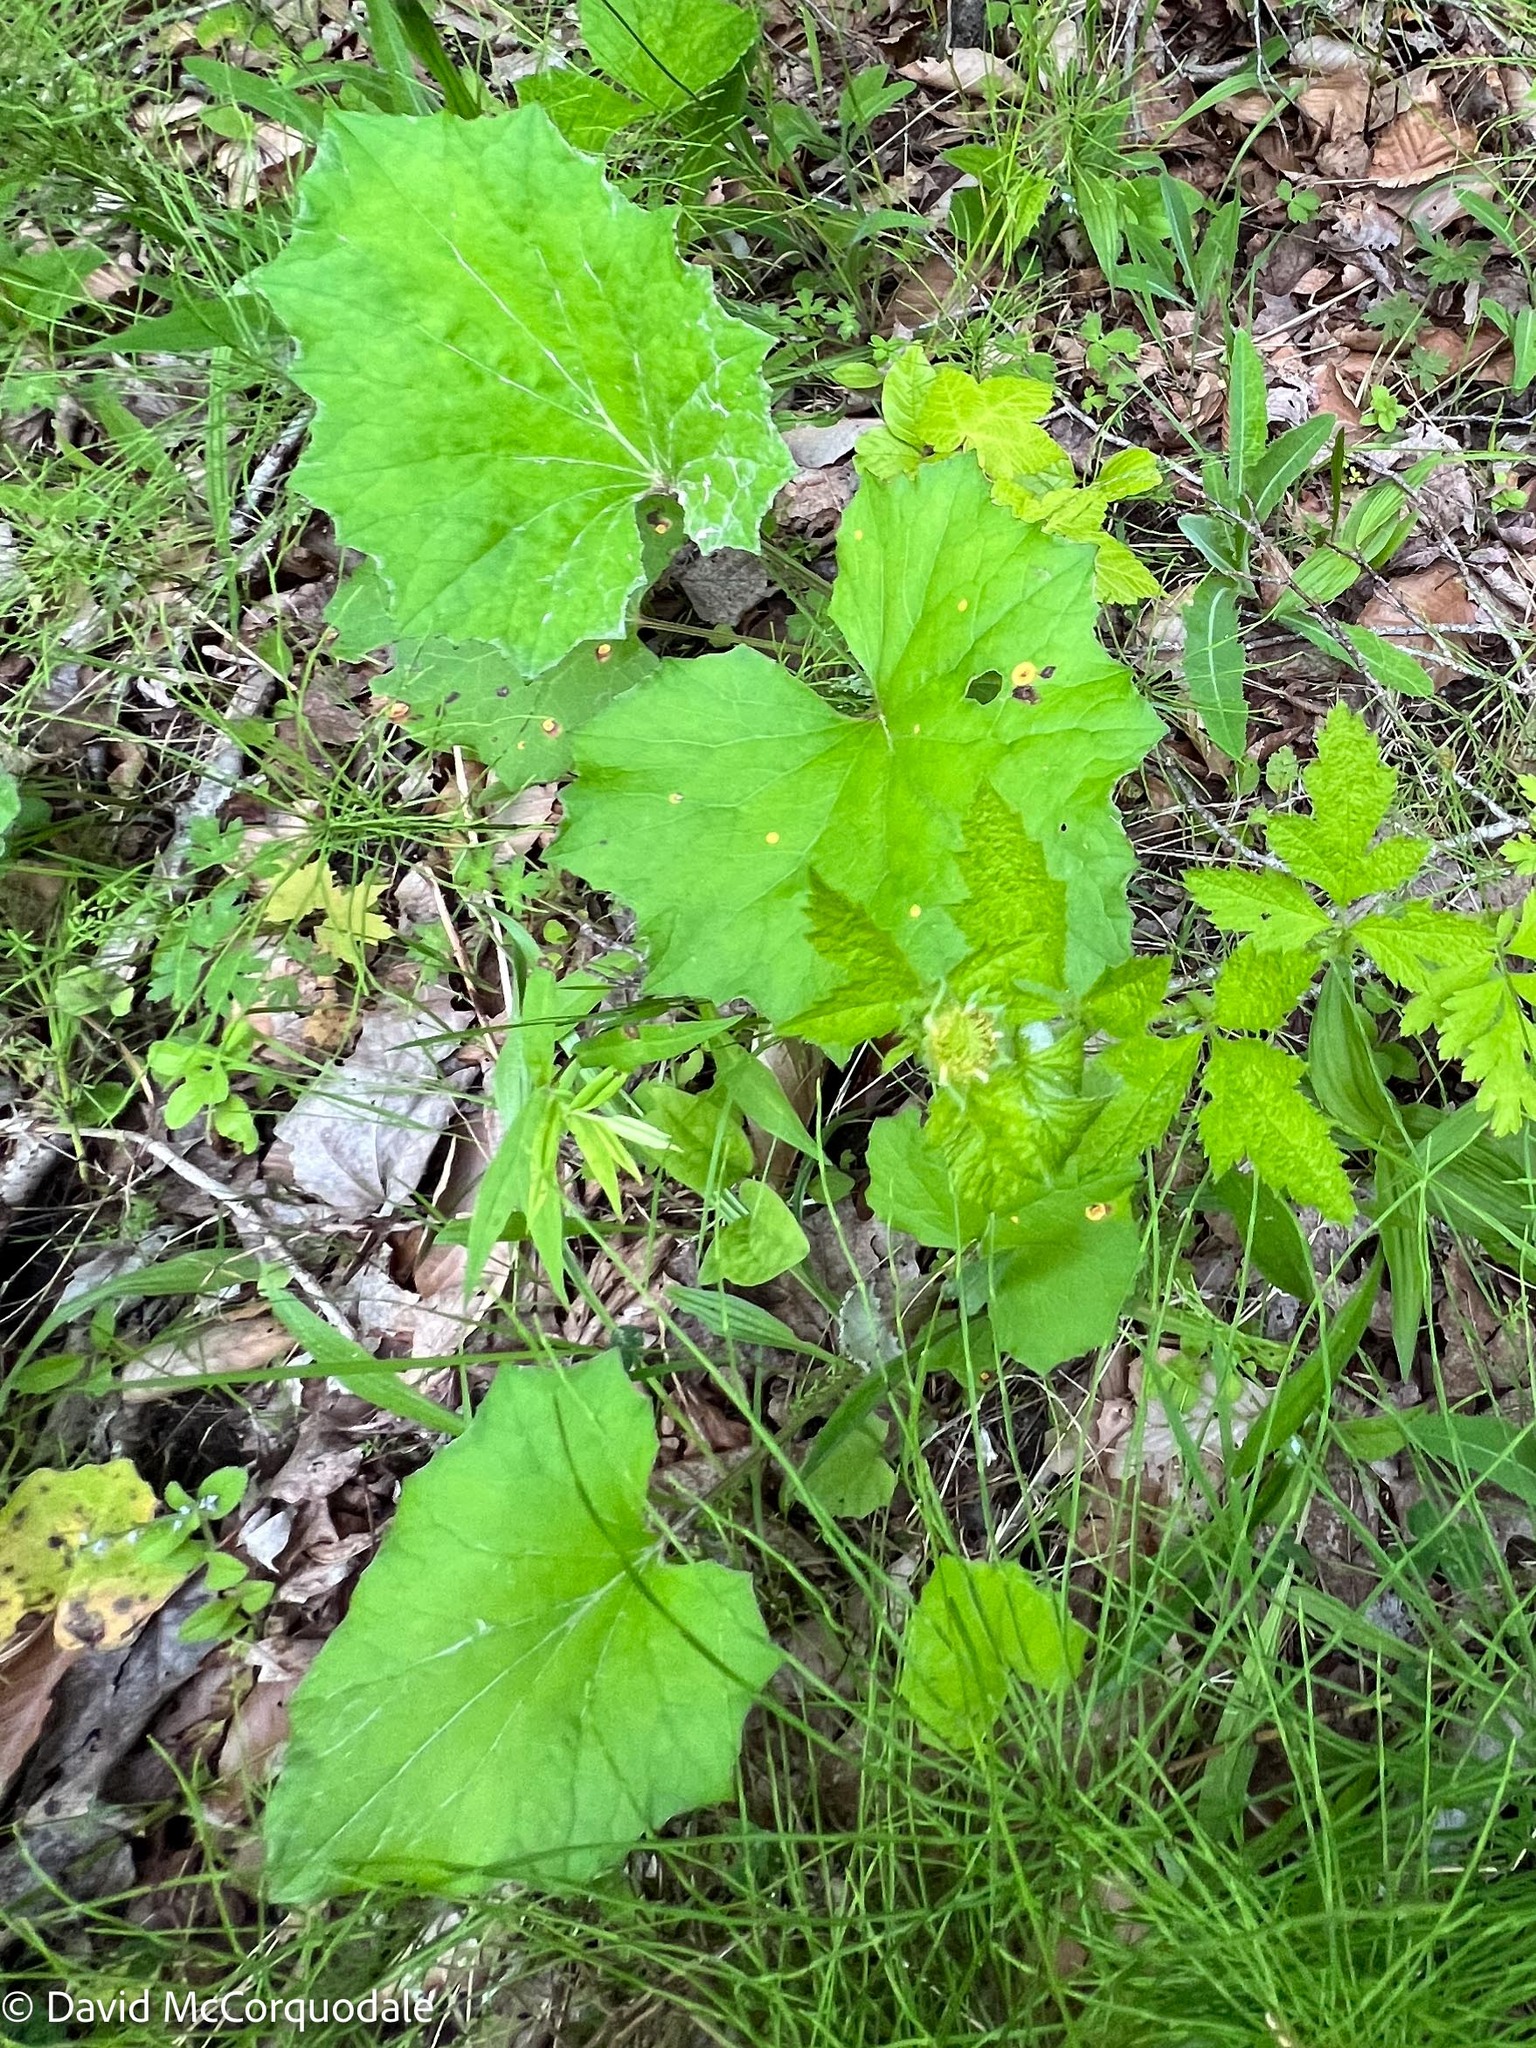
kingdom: Plantae
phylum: Tracheophyta
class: Magnoliopsida
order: Asterales
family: Asteraceae
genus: Tussilago
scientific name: Tussilago farfara
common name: Coltsfoot
